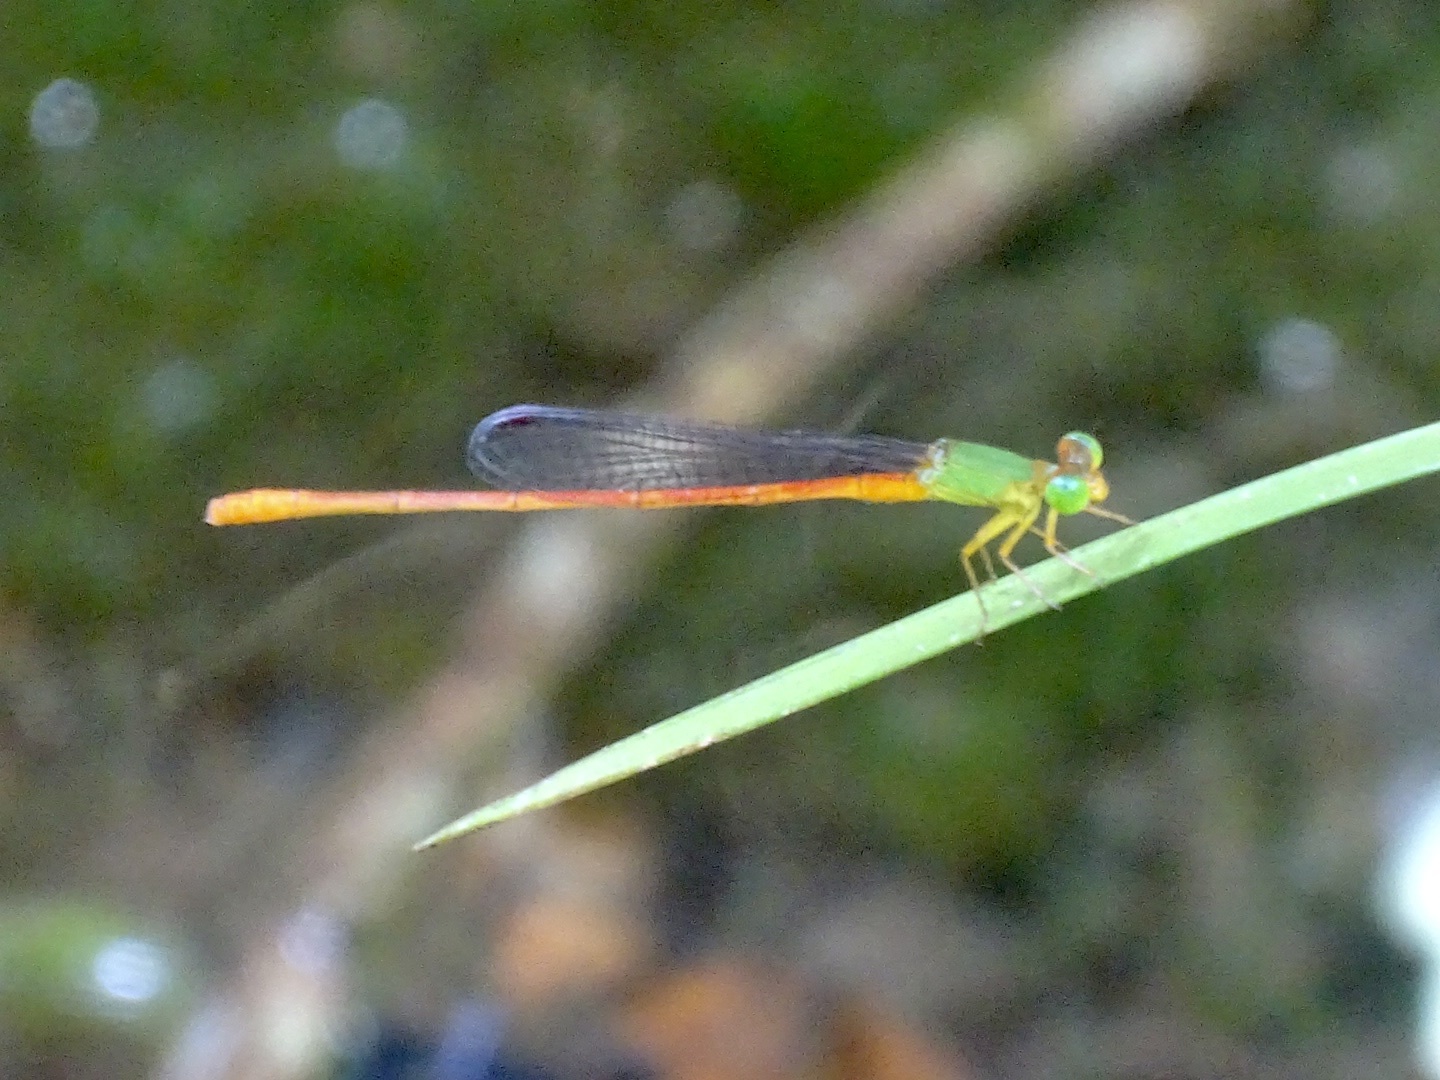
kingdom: Animalia
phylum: Arthropoda
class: Insecta
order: Odonata
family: Coenagrionidae
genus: Ceriagrion
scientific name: Ceriagrion auranticum
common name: Orange-tailed sprite
